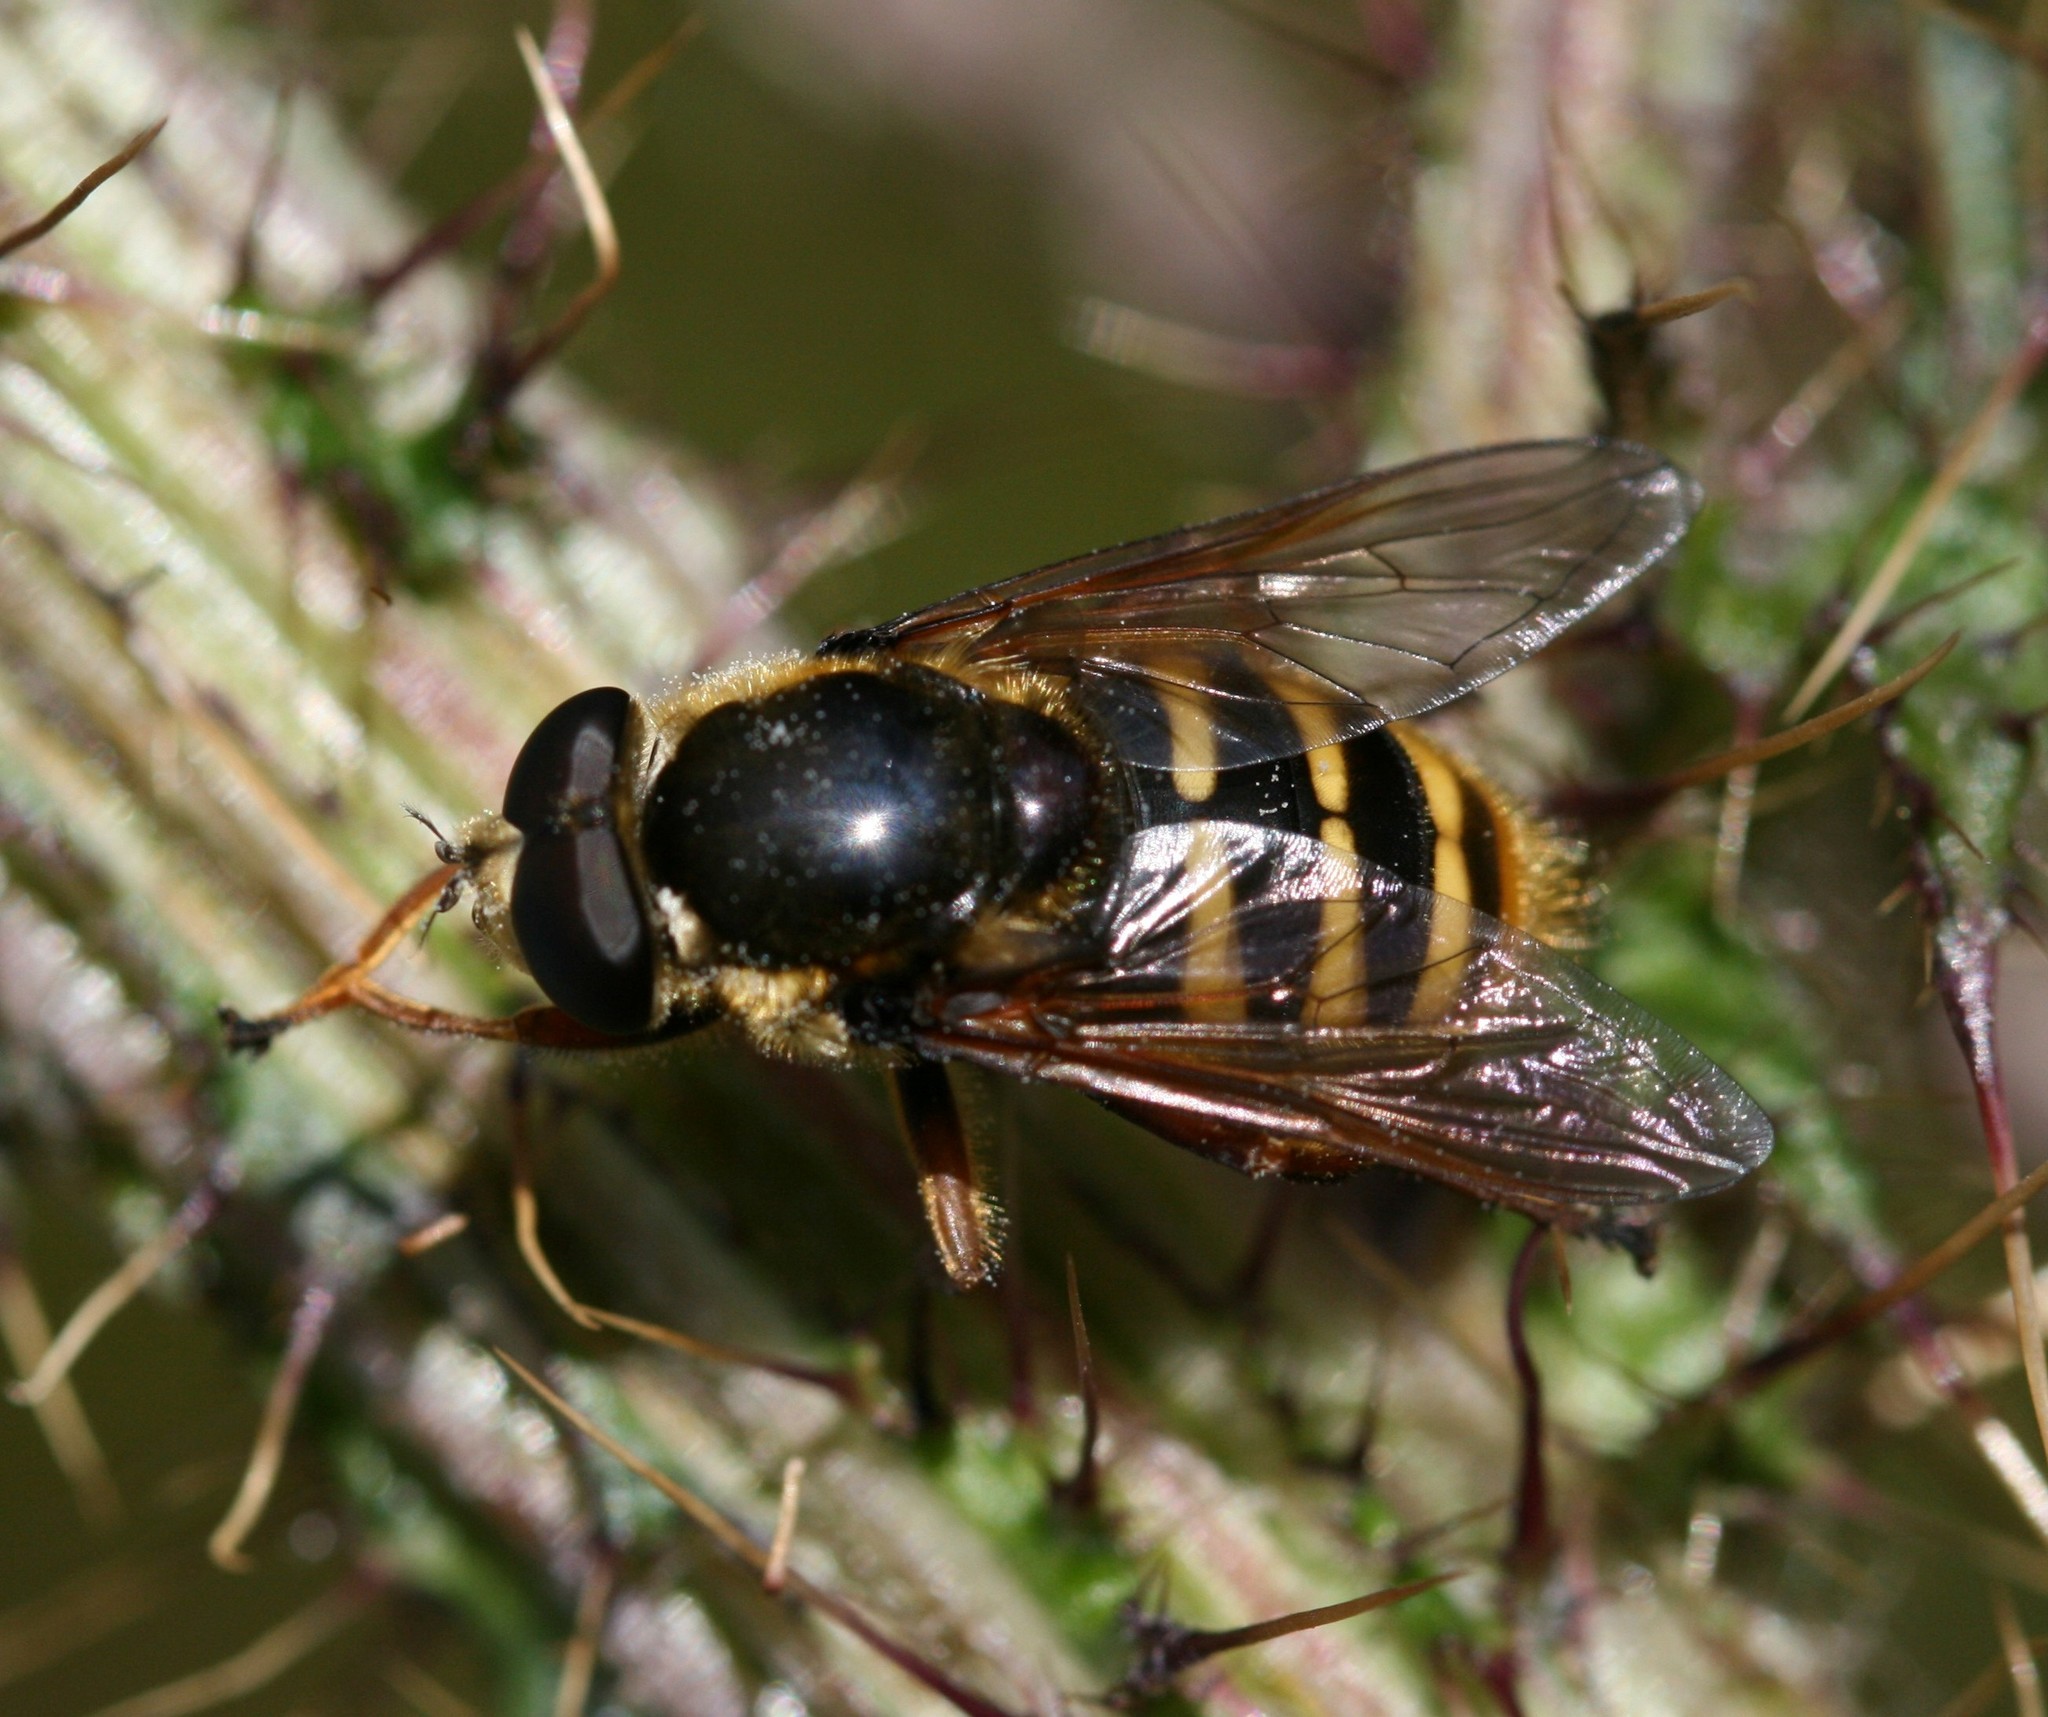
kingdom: Animalia
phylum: Arthropoda
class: Insecta
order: Diptera
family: Syrphidae
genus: Sericomyia
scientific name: Sericomyia silentis
